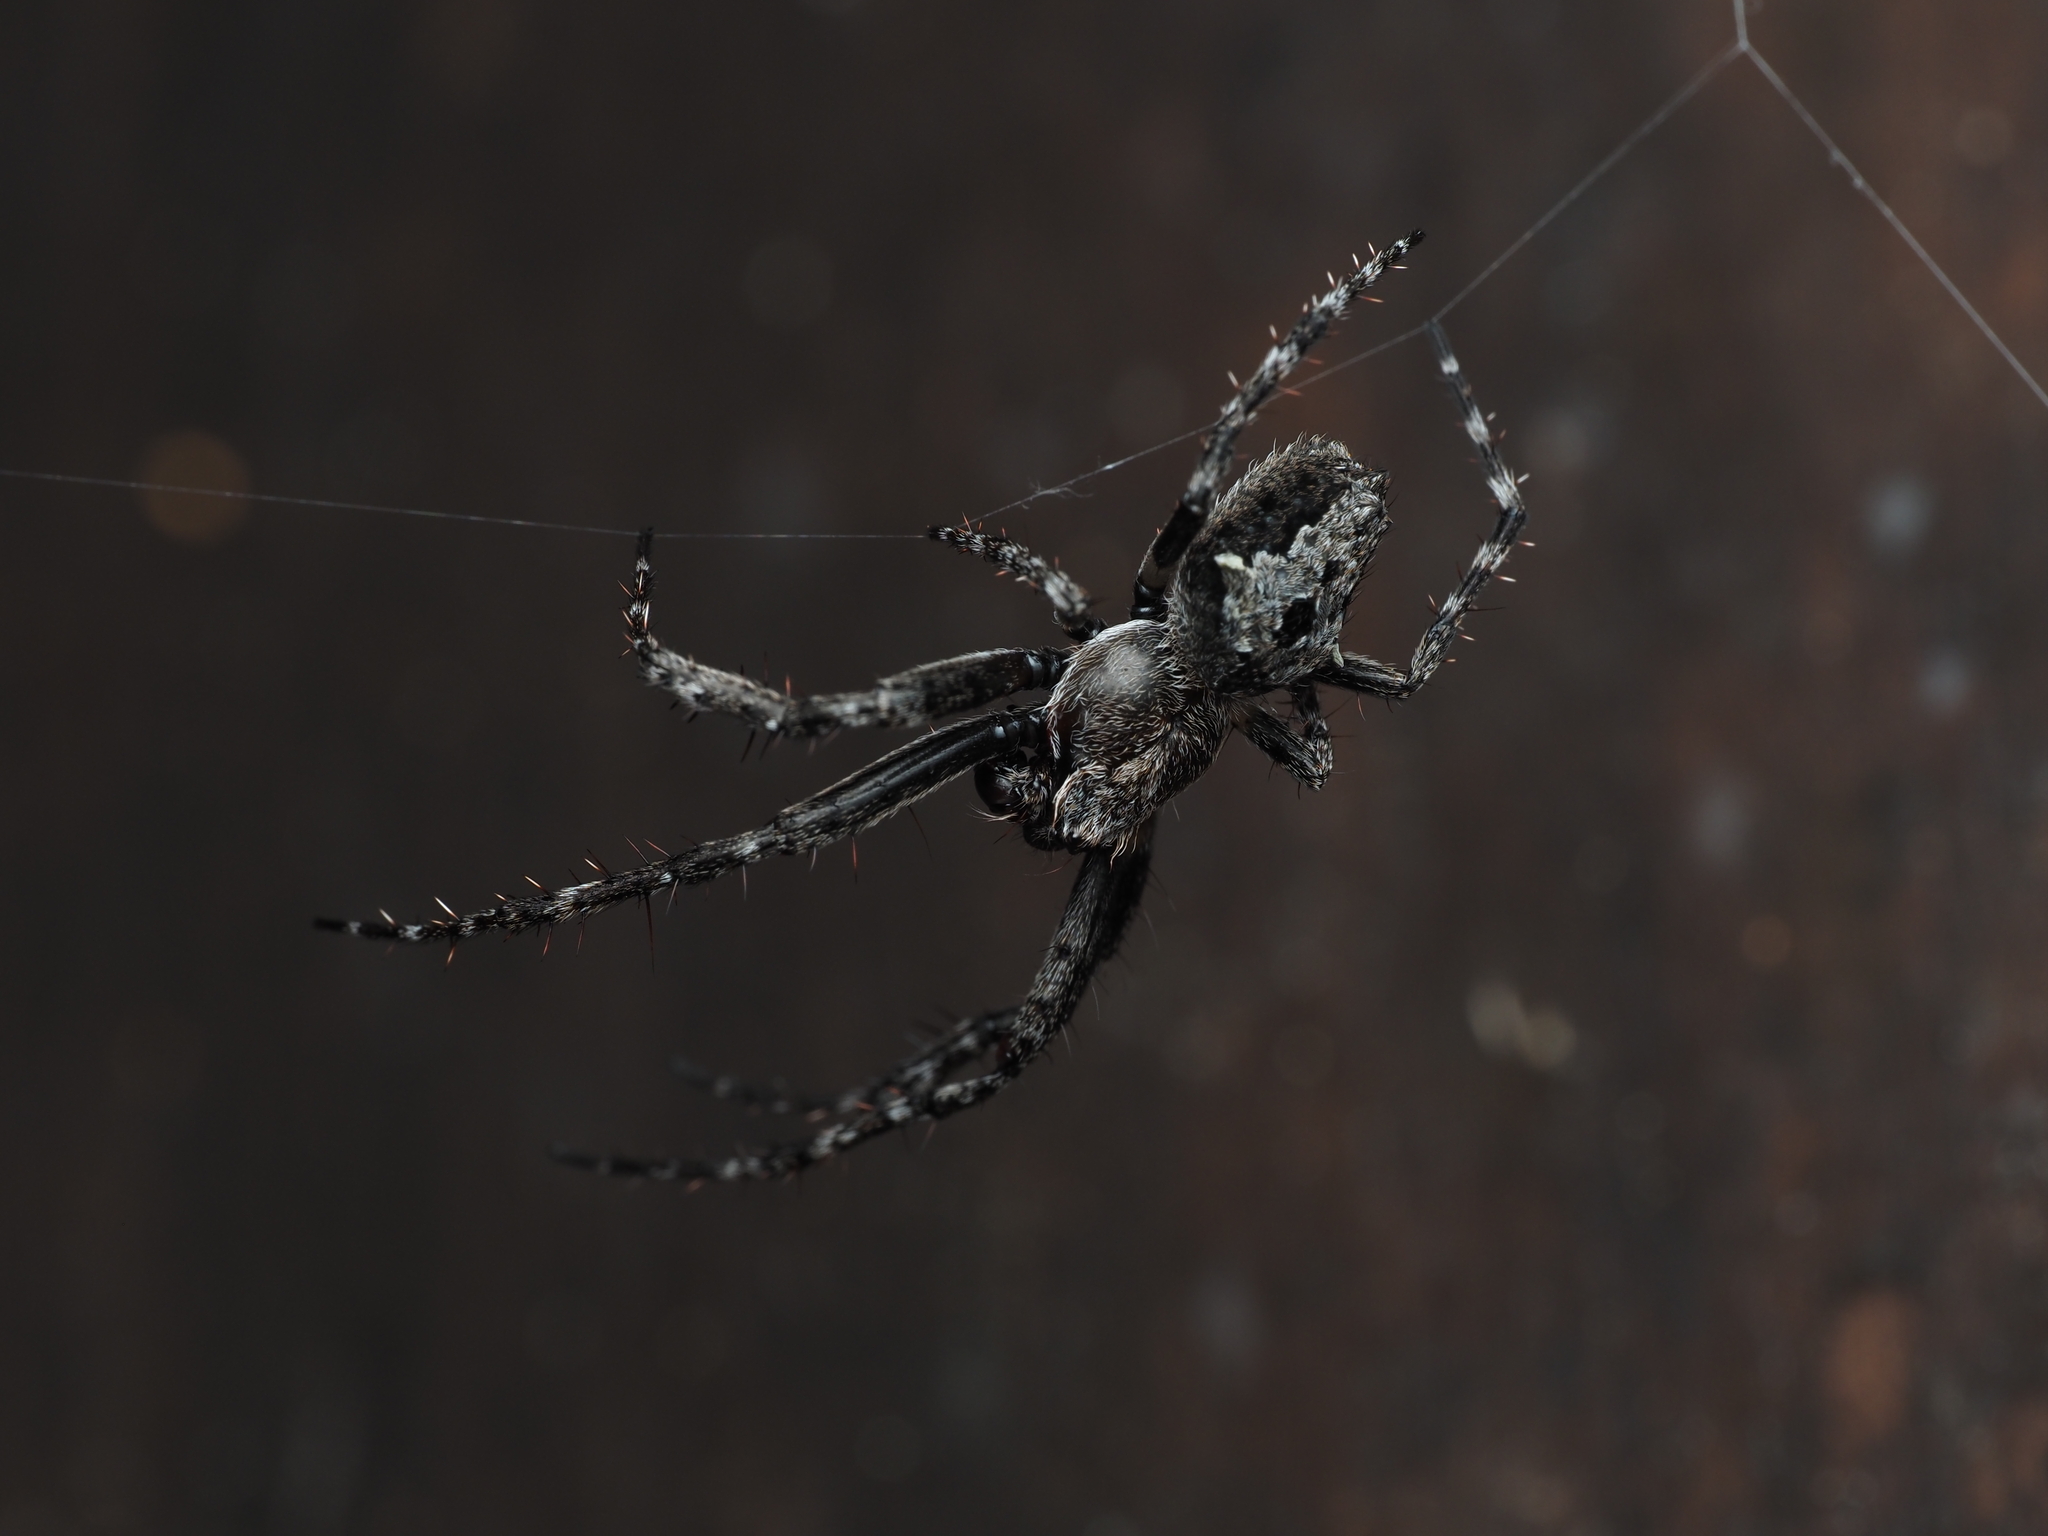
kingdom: Animalia
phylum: Arthropoda
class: Arachnida
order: Araneae
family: Araneidae
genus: Eriophora
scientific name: Eriophora pustulosa
